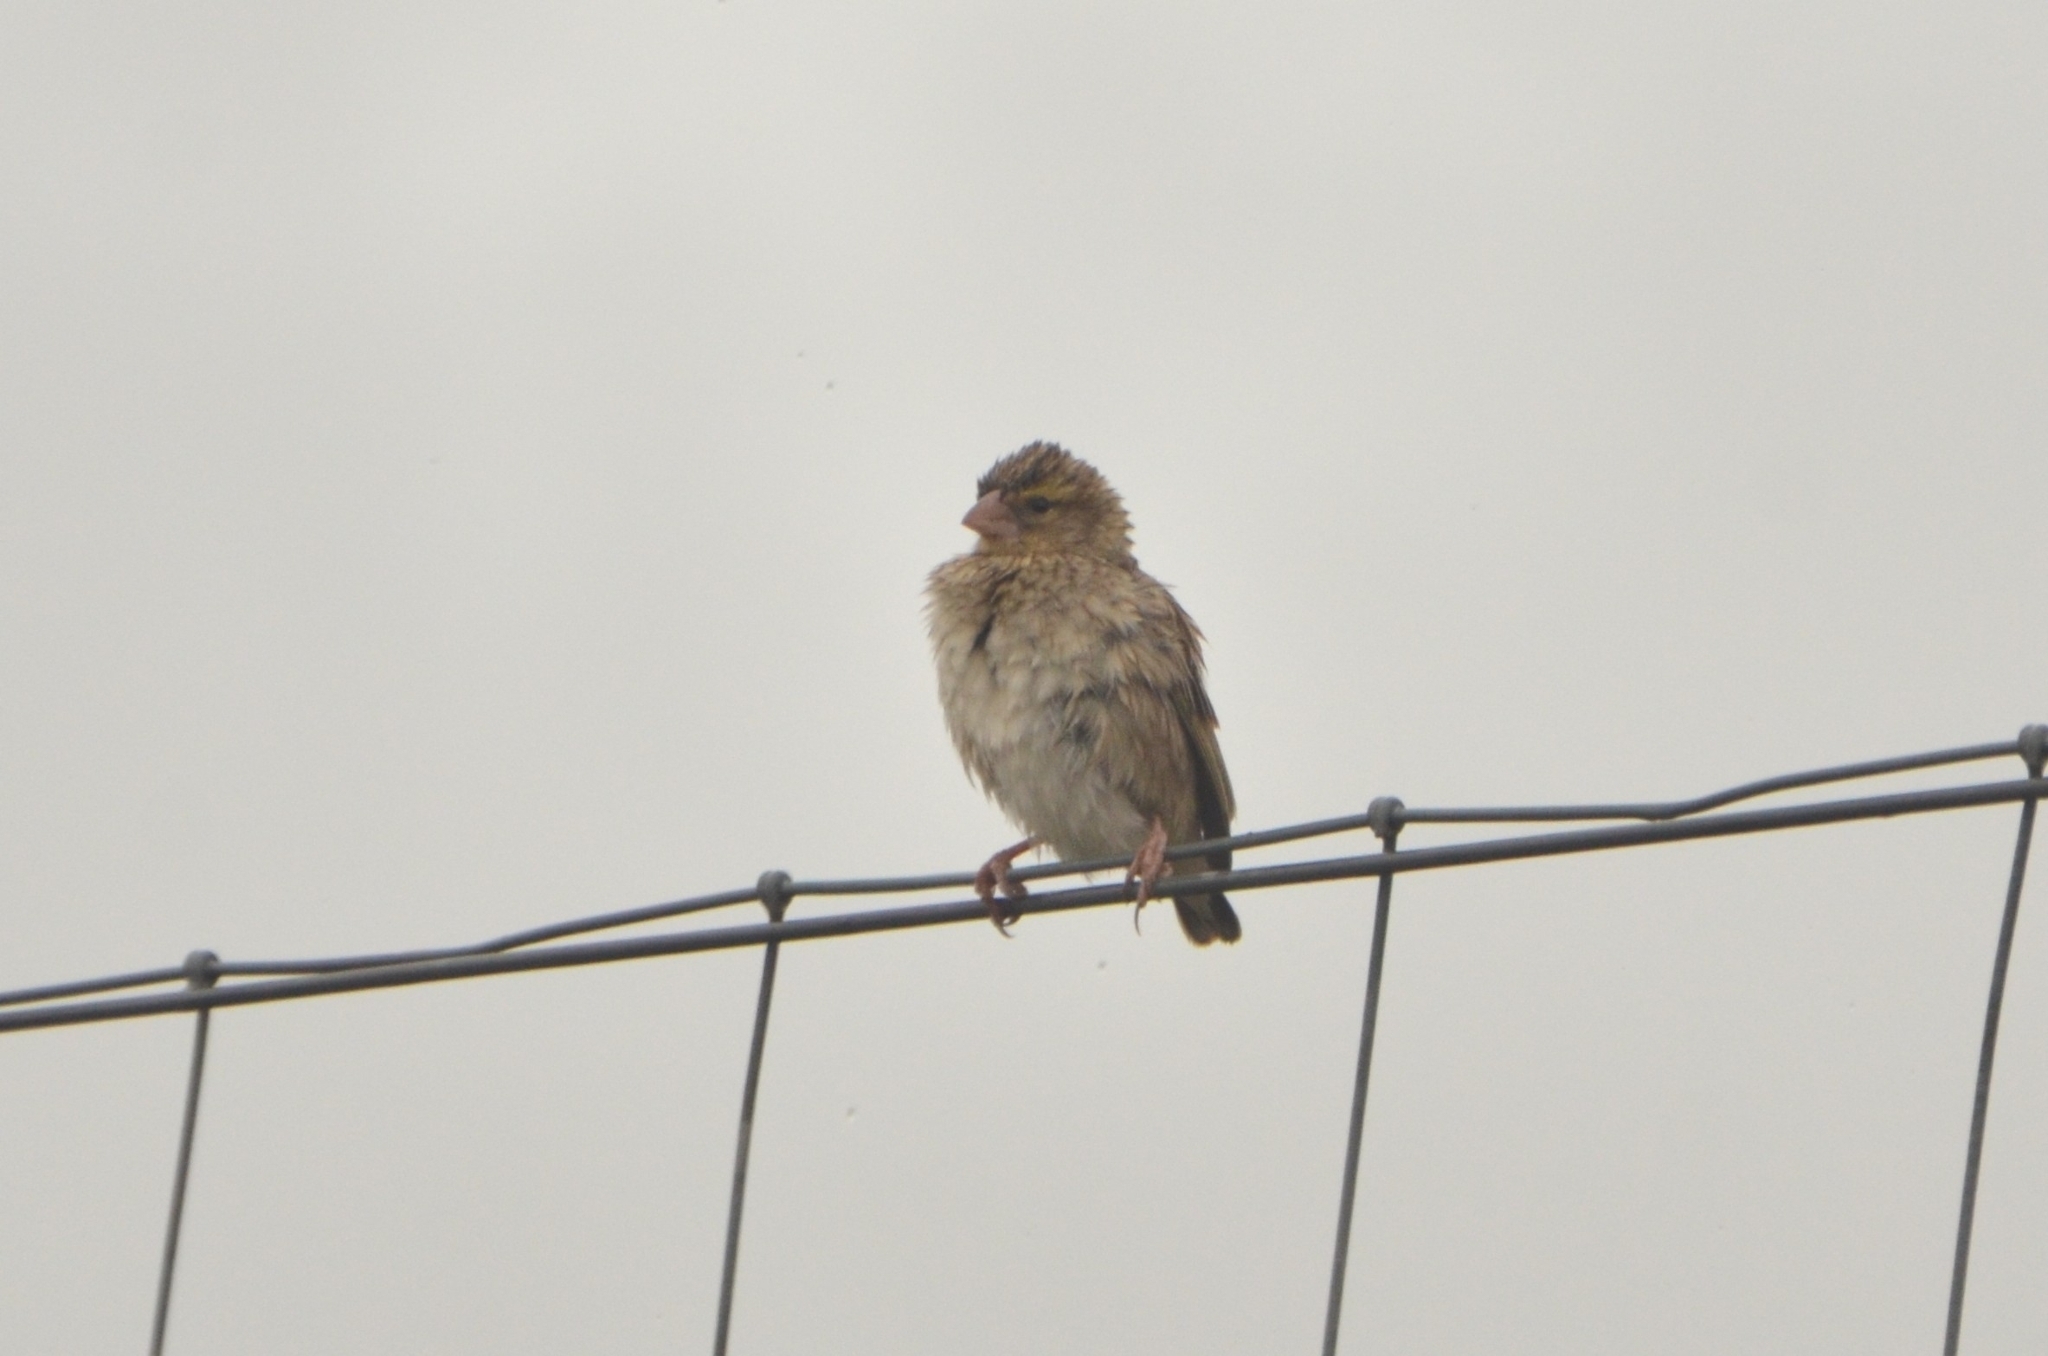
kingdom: Animalia
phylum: Chordata
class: Aves
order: Passeriformes
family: Ploceidae
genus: Euplectes
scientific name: Euplectes orix
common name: Southern red bishop
